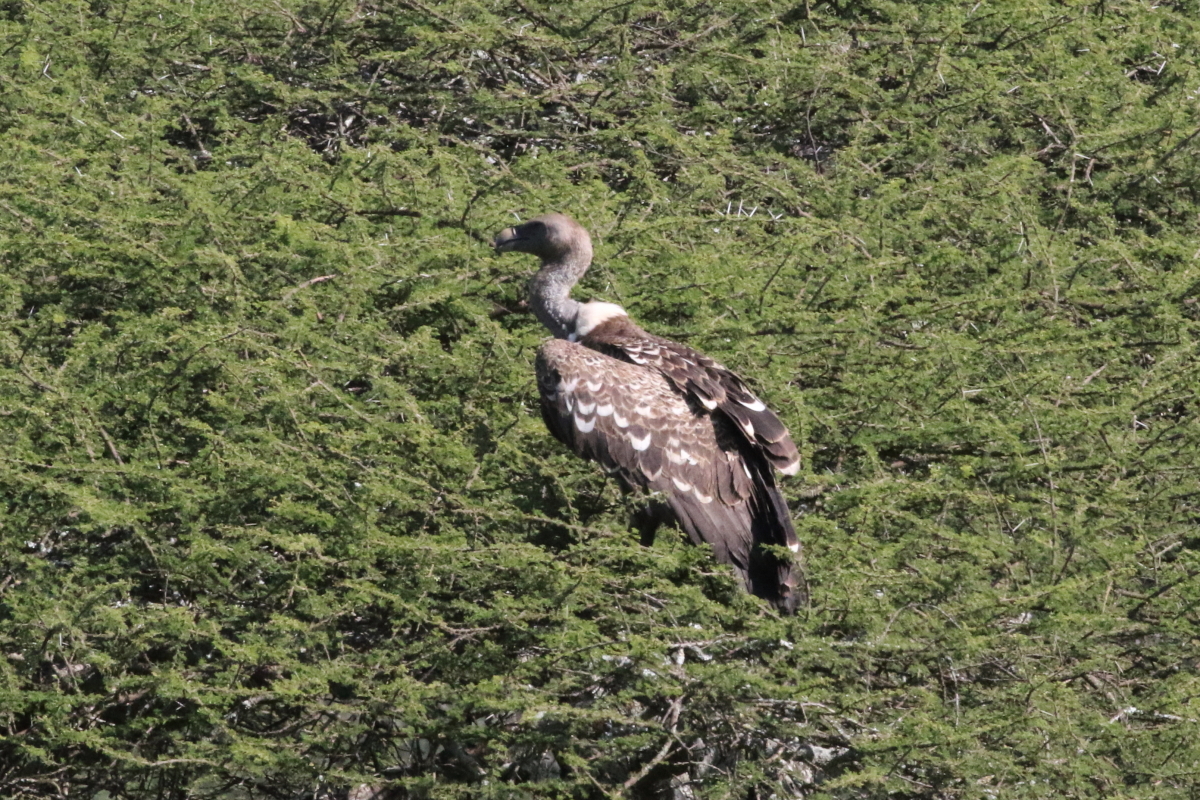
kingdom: Animalia
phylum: Chordata
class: Aves
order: Accipitriformes
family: Accipitridae
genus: Gyps
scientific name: Gyps rueppellii
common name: Rüppell's vulture
